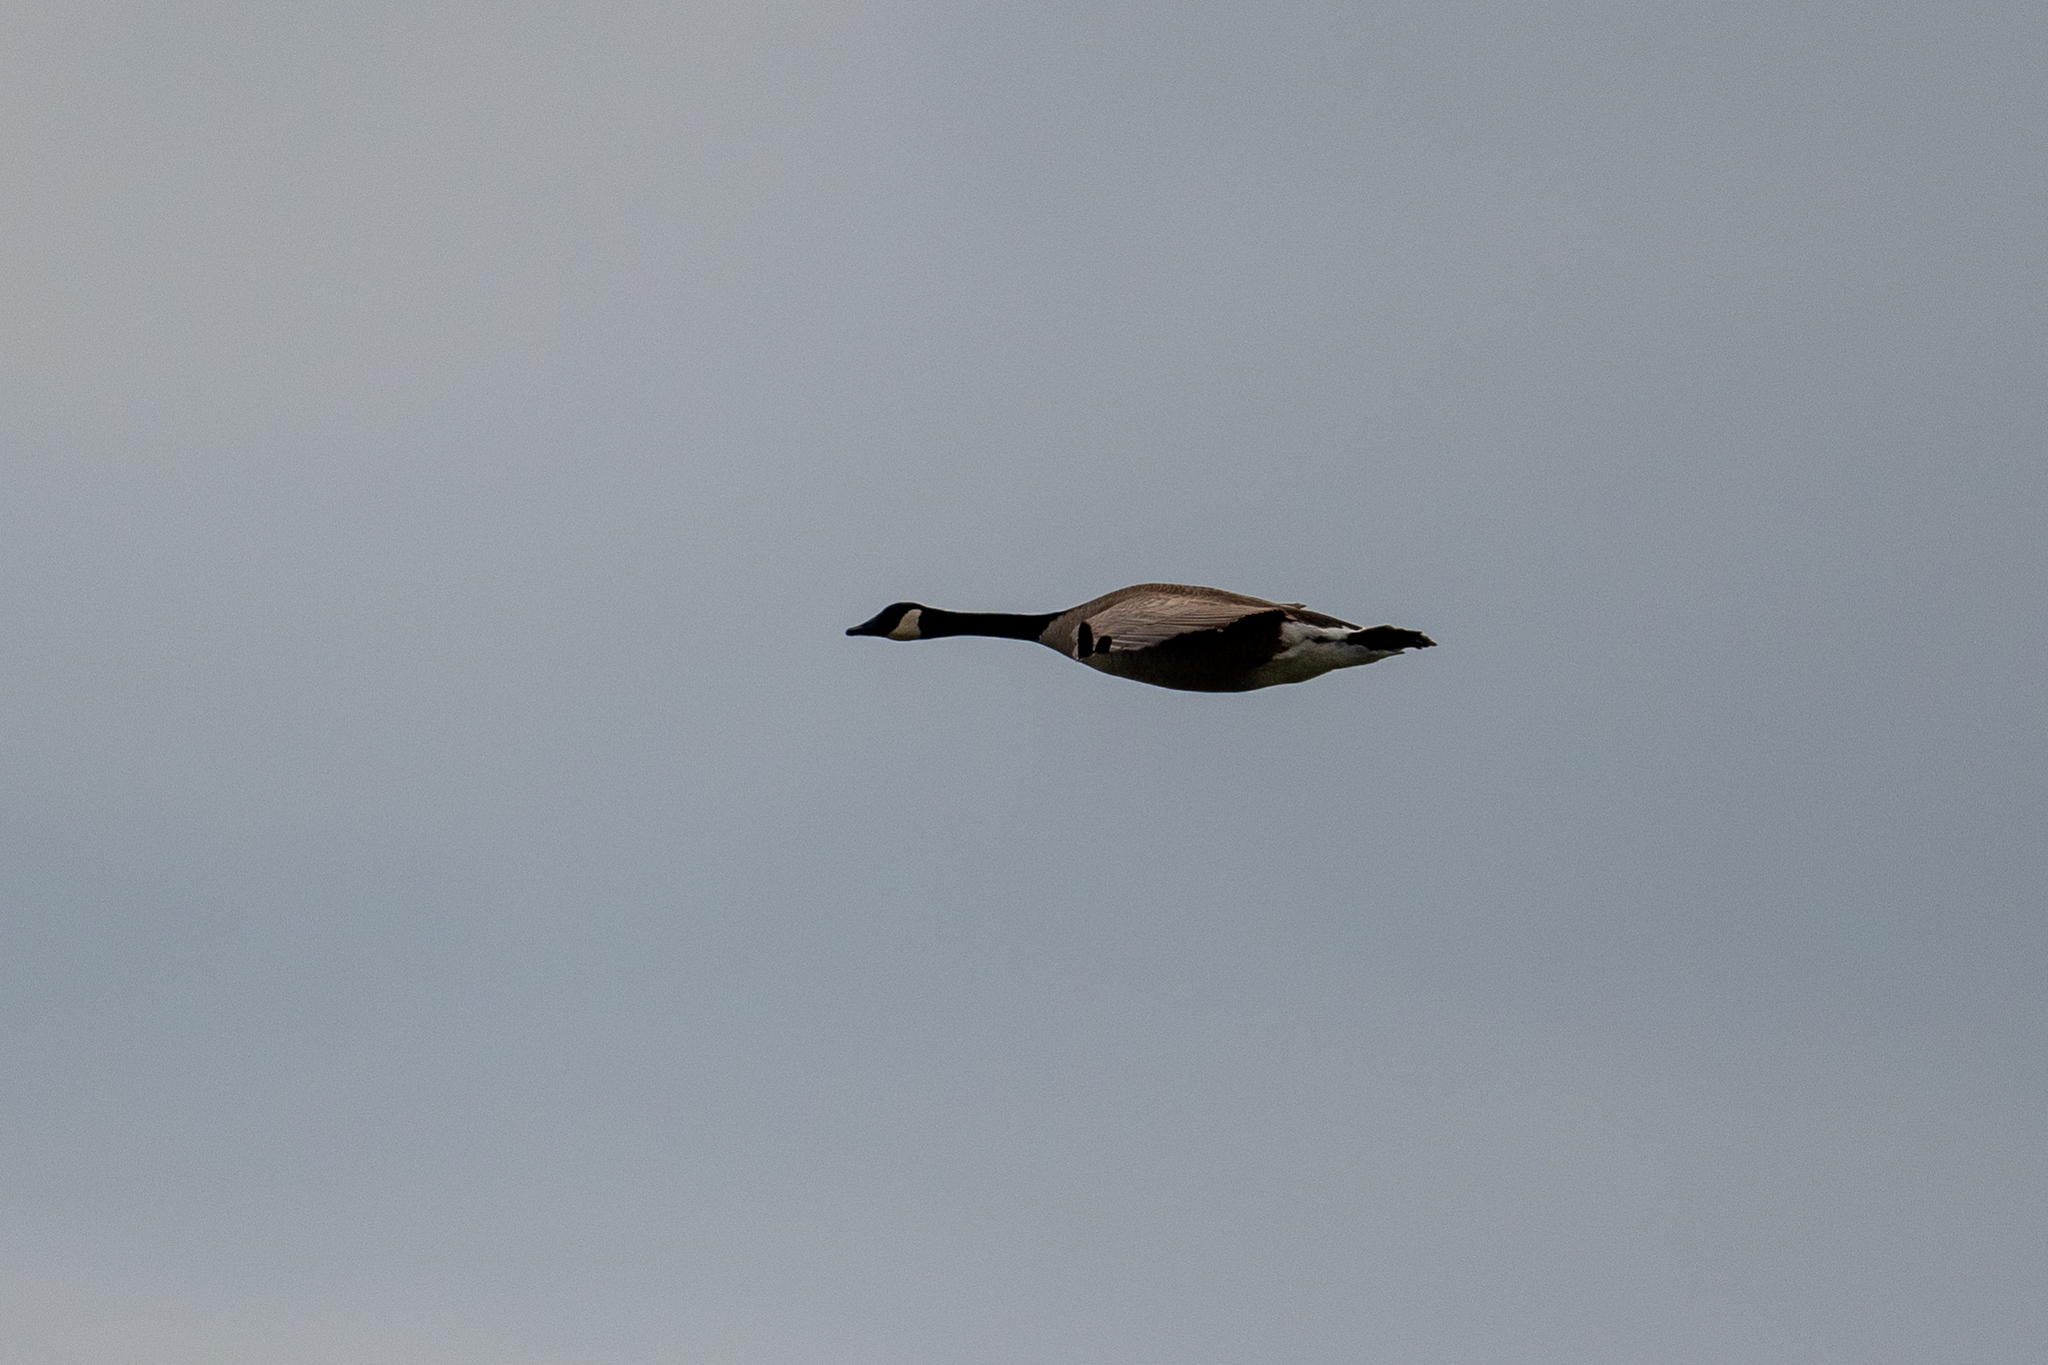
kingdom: Animalia
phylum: Chordata
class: Aves
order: Anseriformes
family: Anatidae
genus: Branta
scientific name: Branta canadensis
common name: Canada goose
